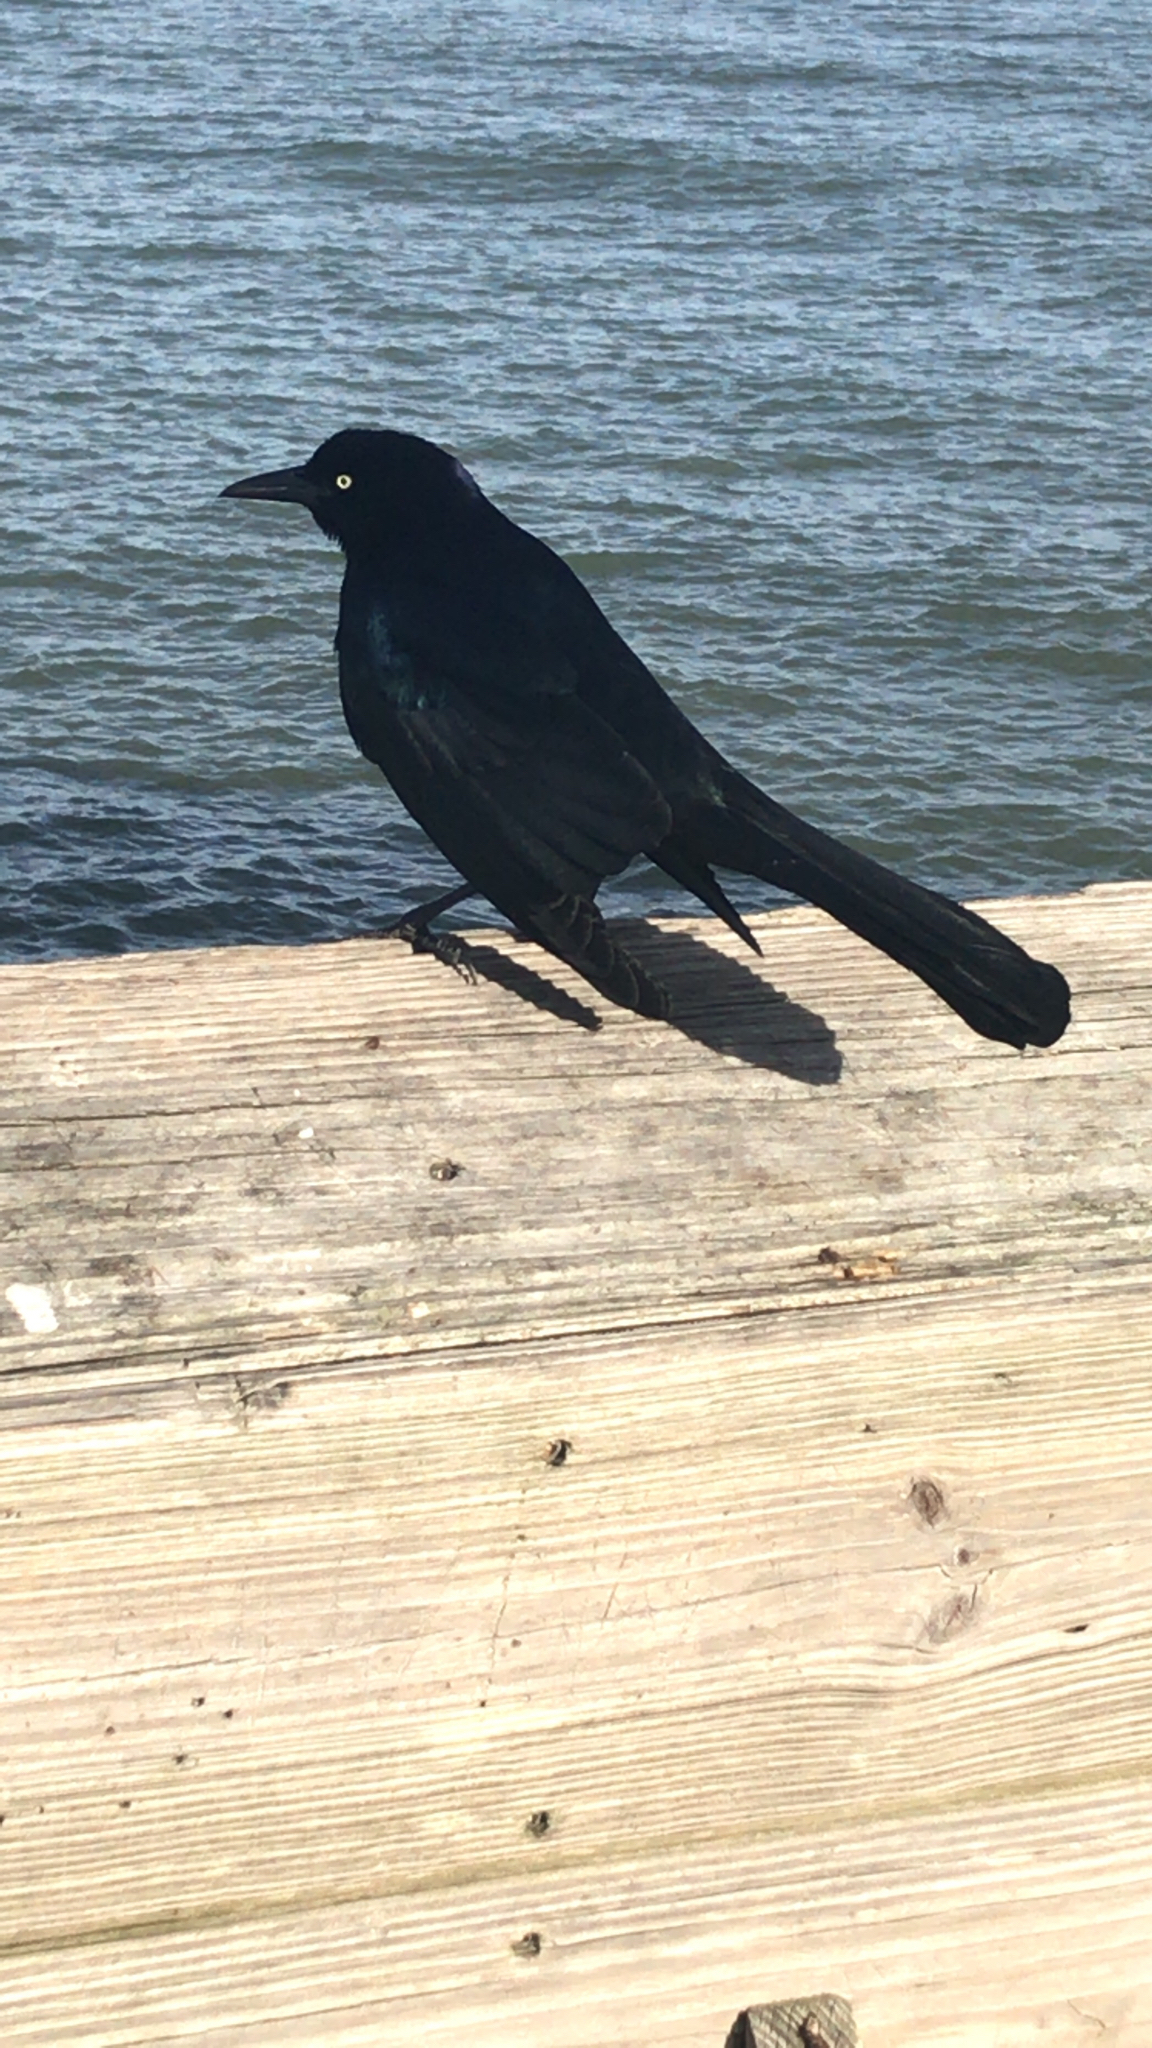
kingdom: Animalia
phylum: Chordata
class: Aves
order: Passeriformes
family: Icteridae
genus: Quiscalus
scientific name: Quiscalus major
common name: Boat-tailed grackle
